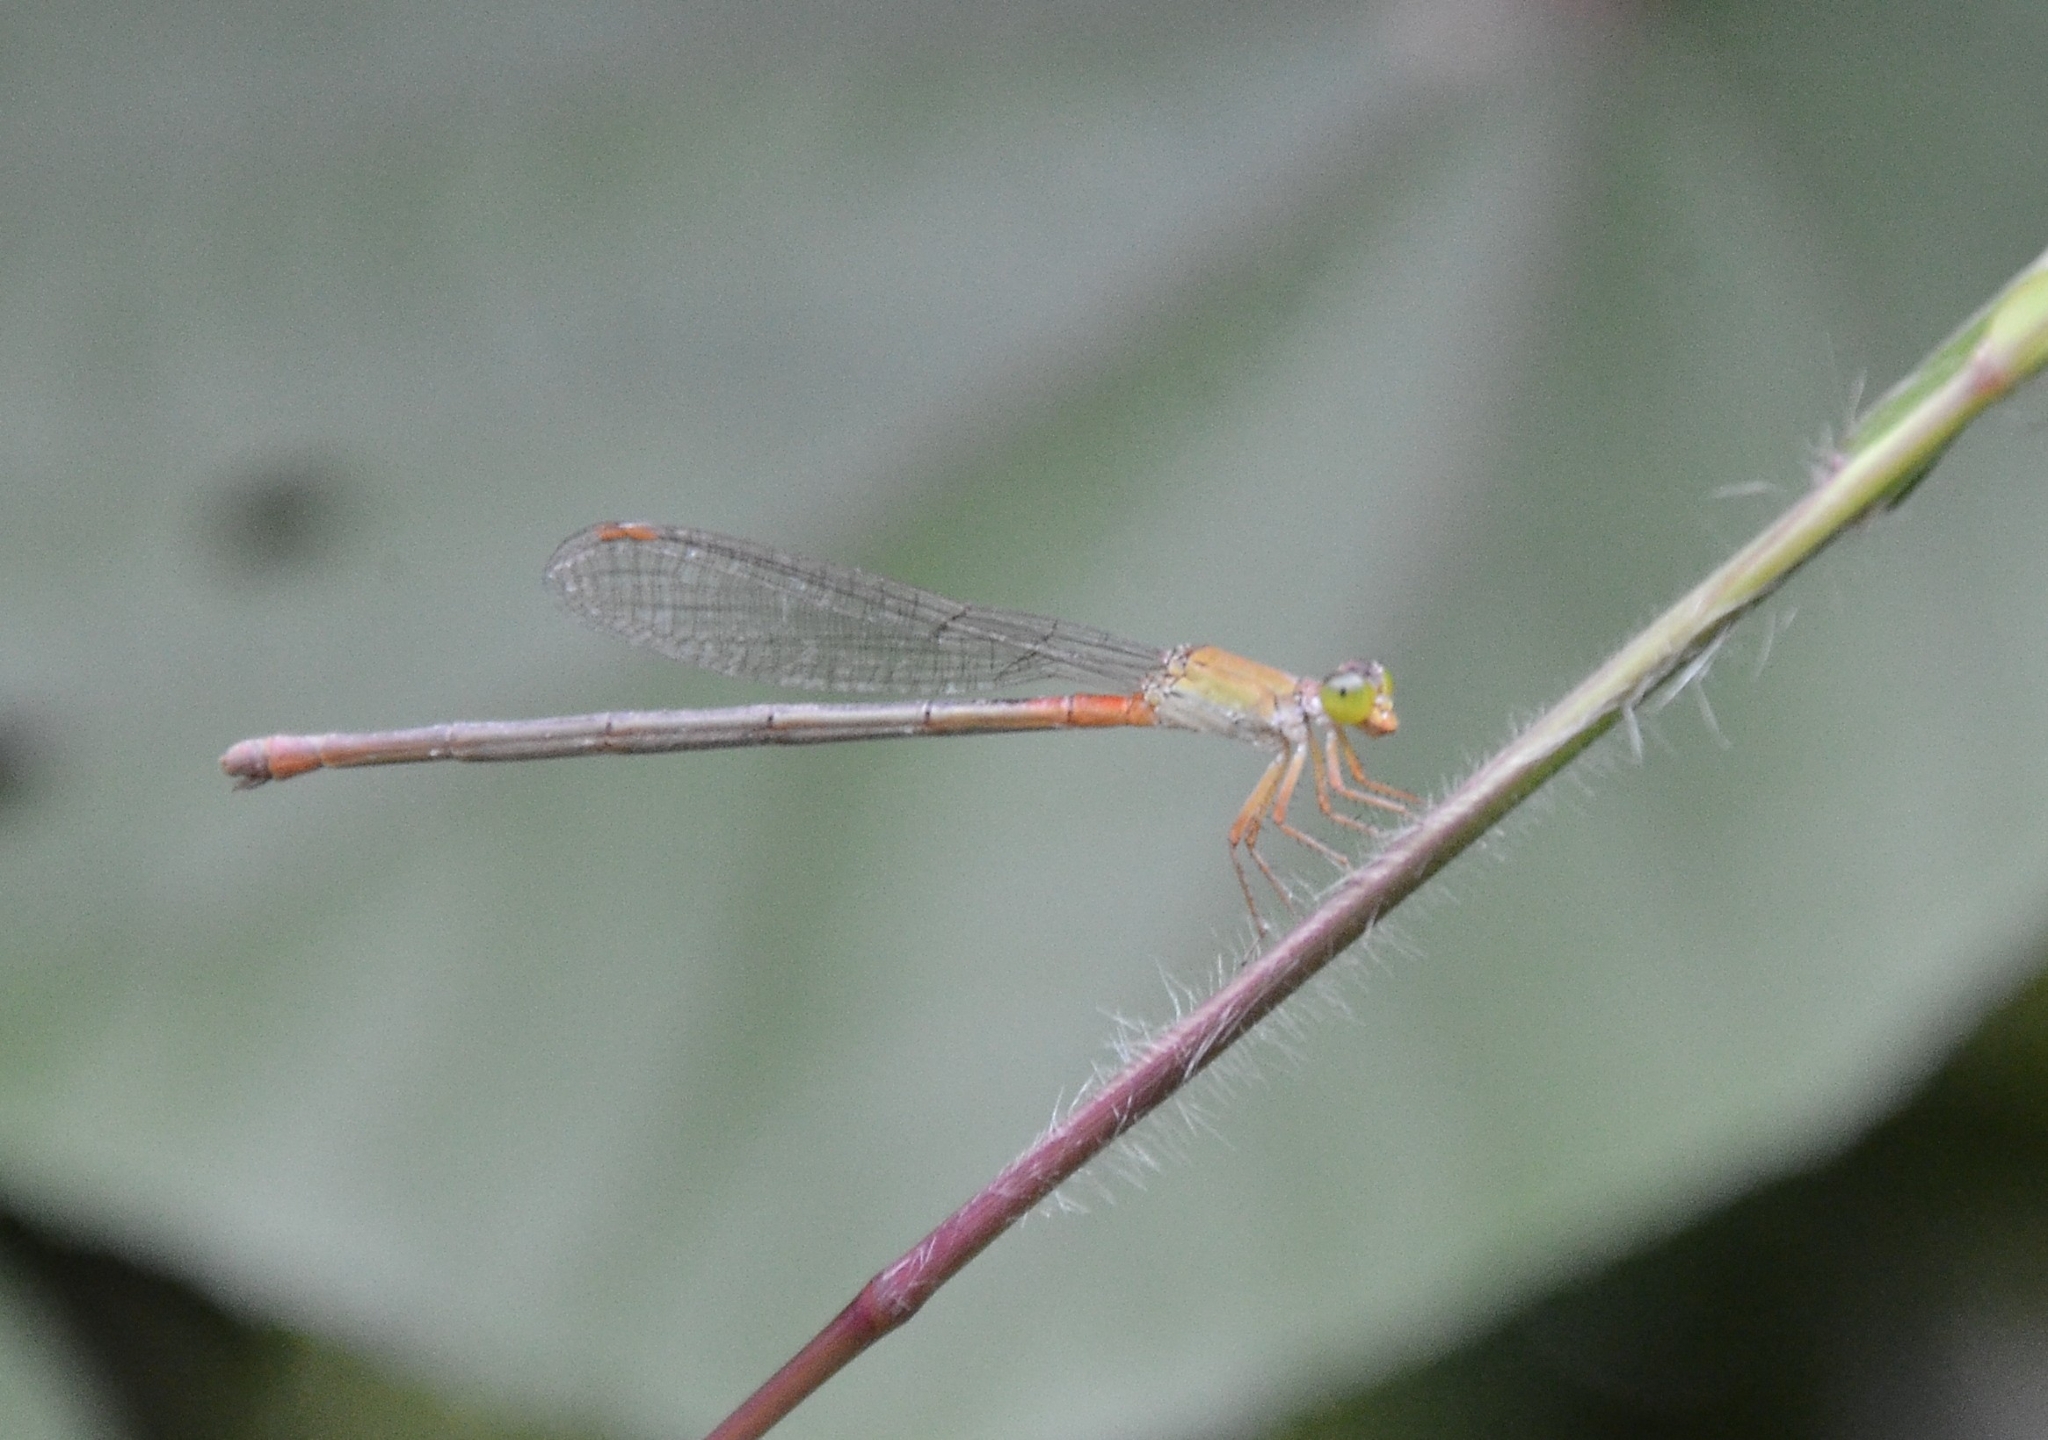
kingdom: Animalia
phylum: Arthropoda
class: Insecta
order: Odonata
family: Coenagrionidae
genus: Ceriagrion
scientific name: Ceriagrion cerinorubellum
